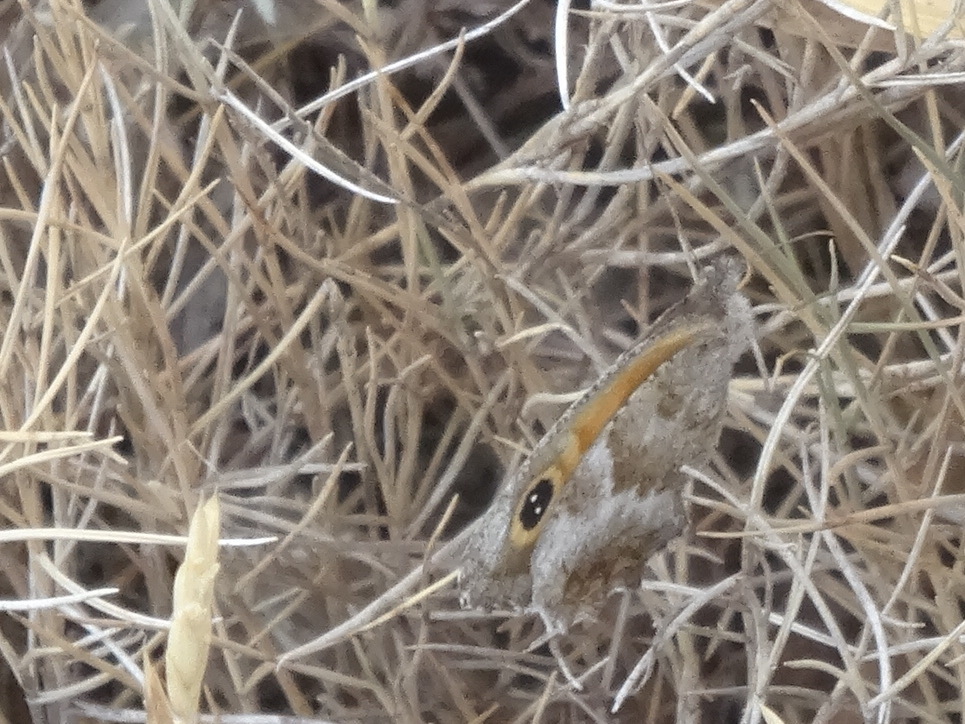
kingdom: Animalia
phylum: Arthropoda
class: Insecta
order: Lepidoptera
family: Nymphalidae
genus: Pyronia
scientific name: Pyronia cecilia
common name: Southern gatekeeper
